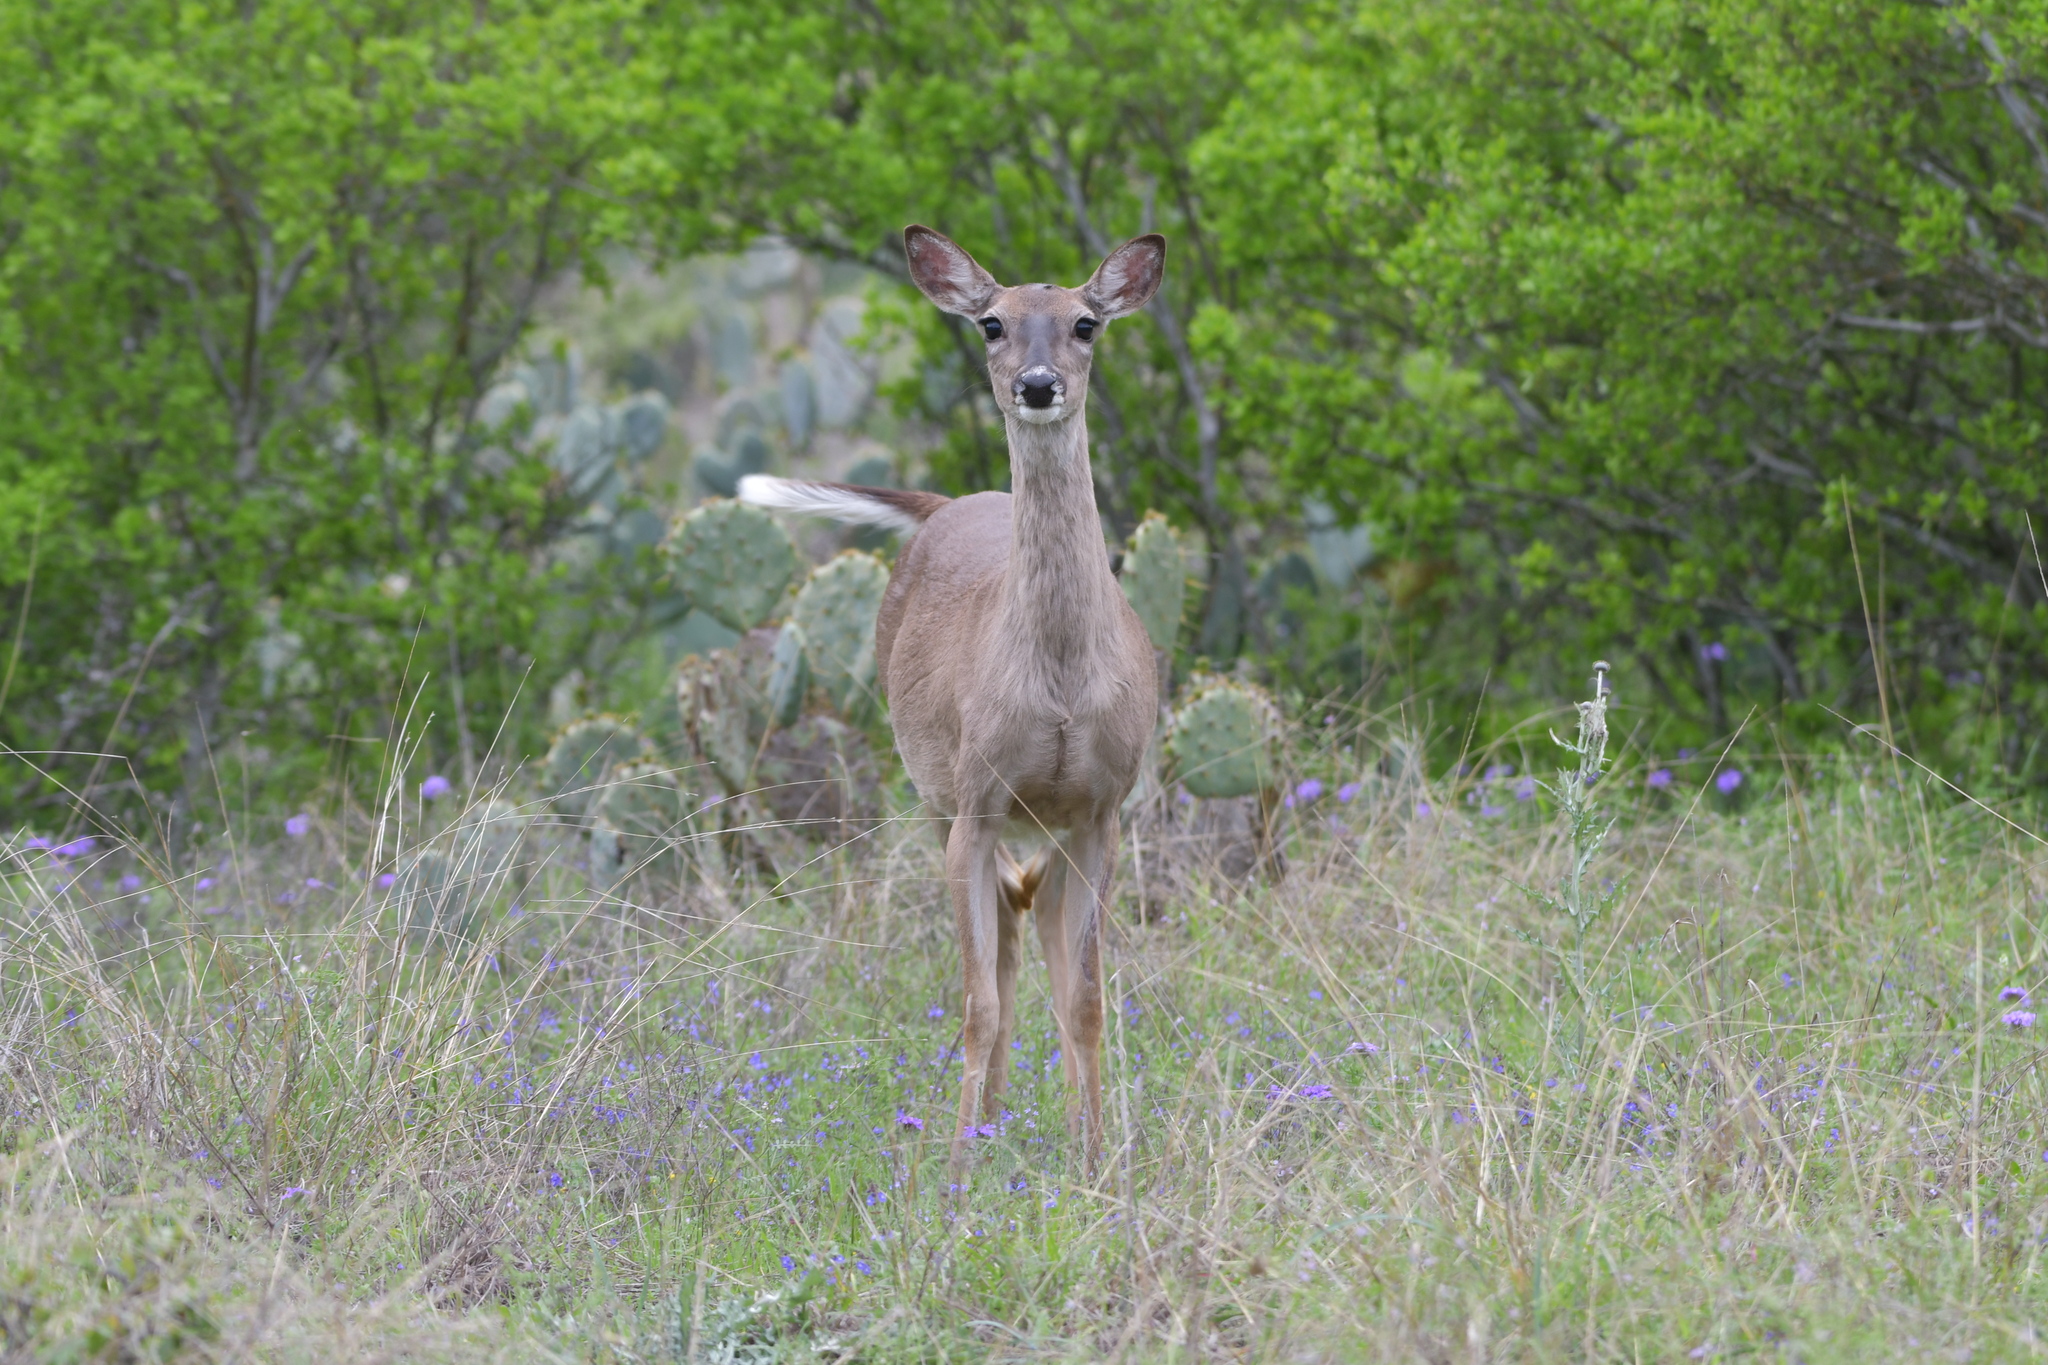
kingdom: Animalia
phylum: Chordata
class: Mammalia
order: Artiodactyla
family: Cervidae
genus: Odocoileus
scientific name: Odocoileus virginianus
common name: White-tailed deer
